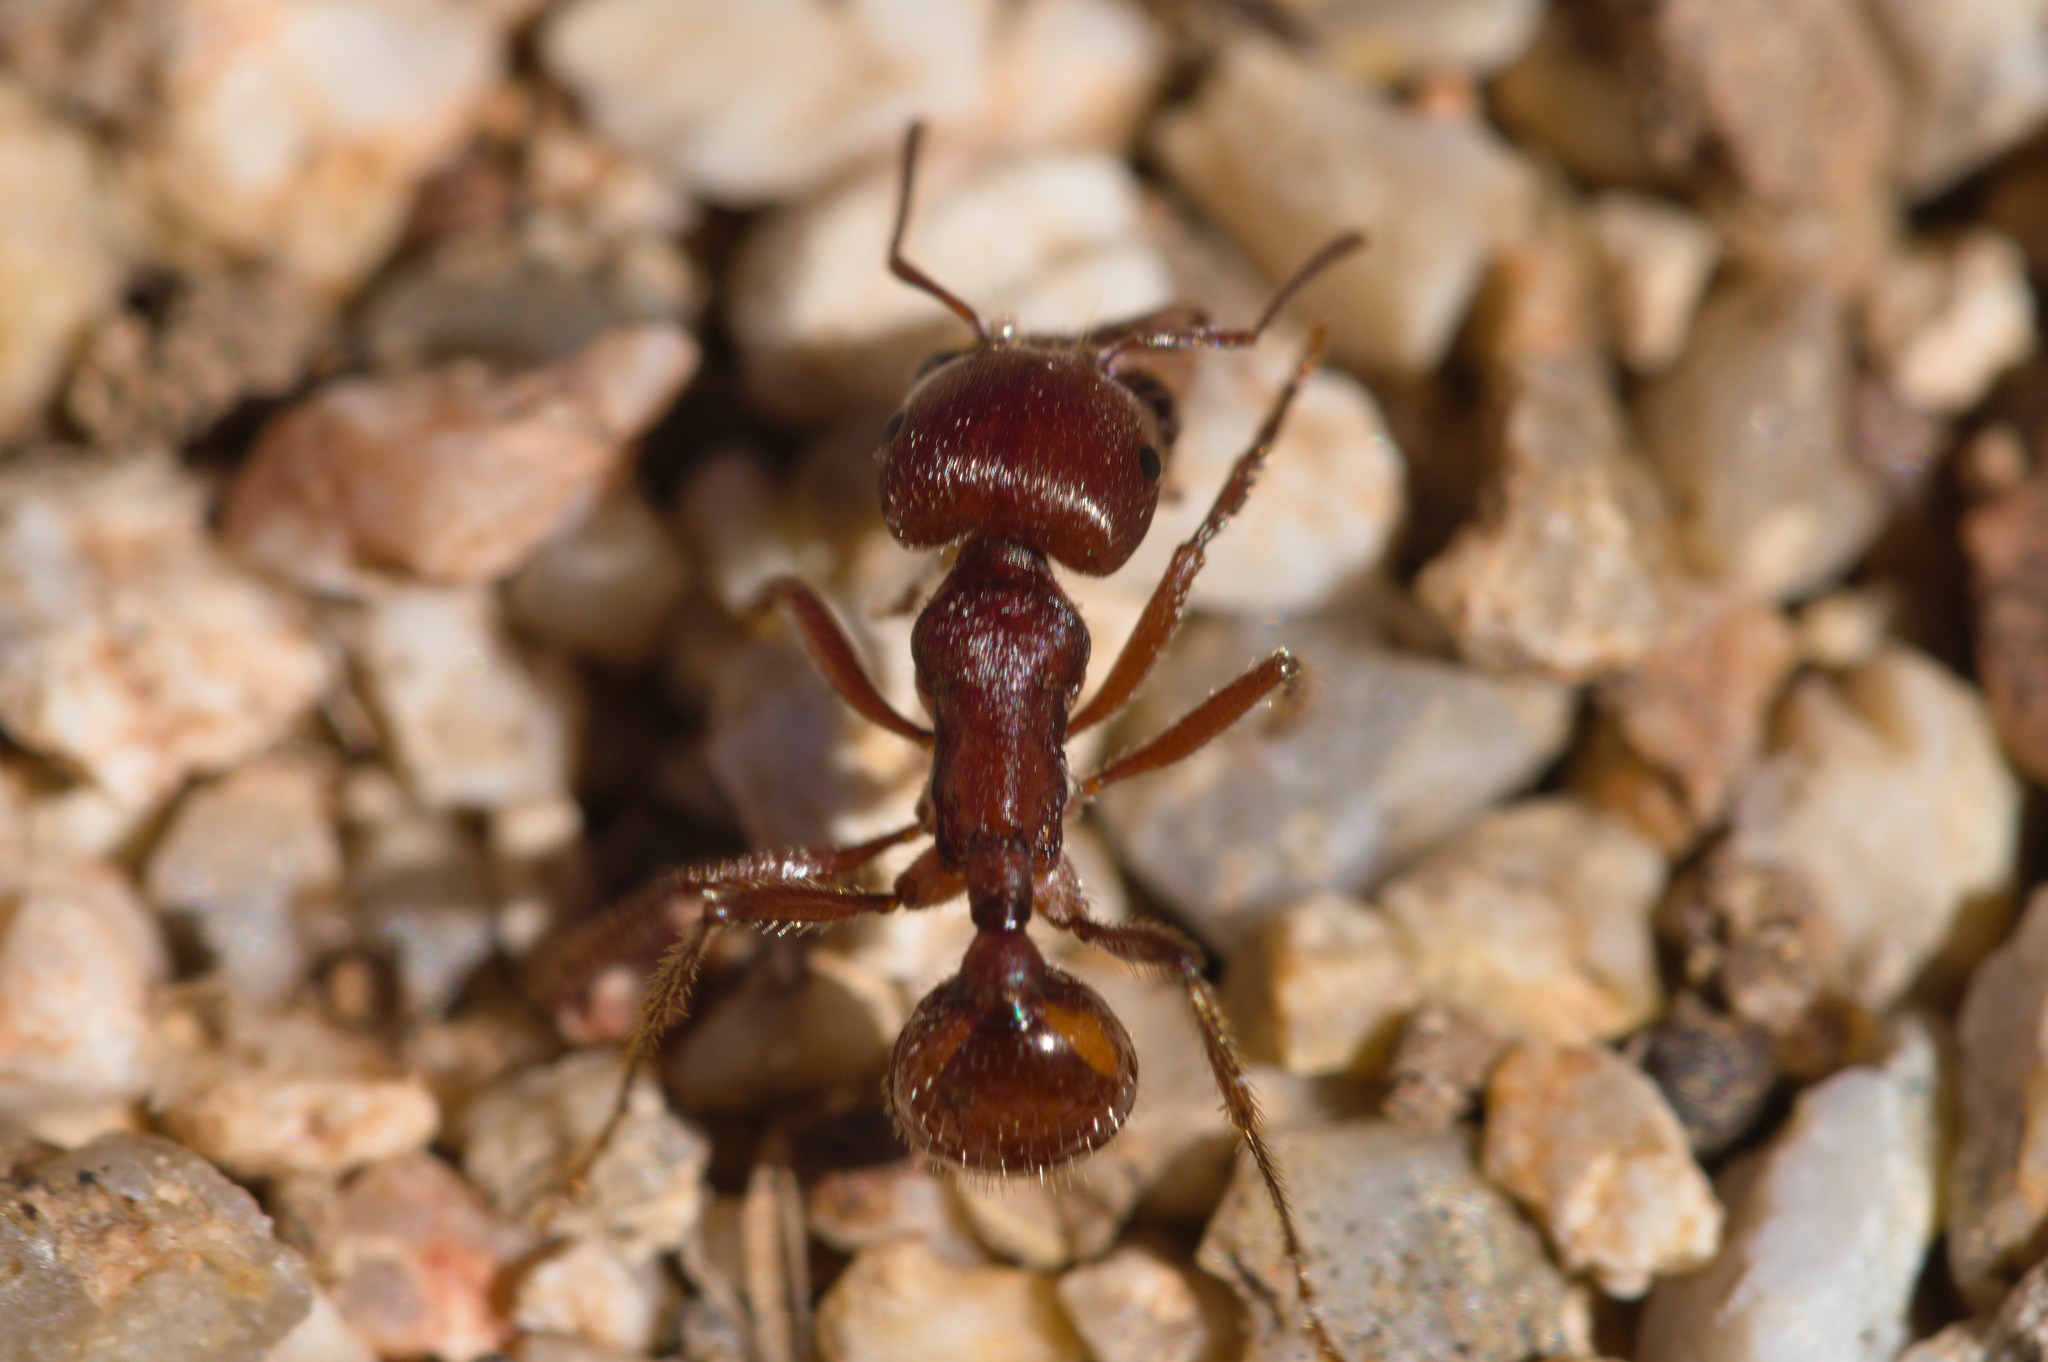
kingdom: Animalia
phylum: Arthropoda
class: Insecta
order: Hymenoptera
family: Formicidae
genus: Pogonomyrmex
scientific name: Pogonomyrmex barbatus
